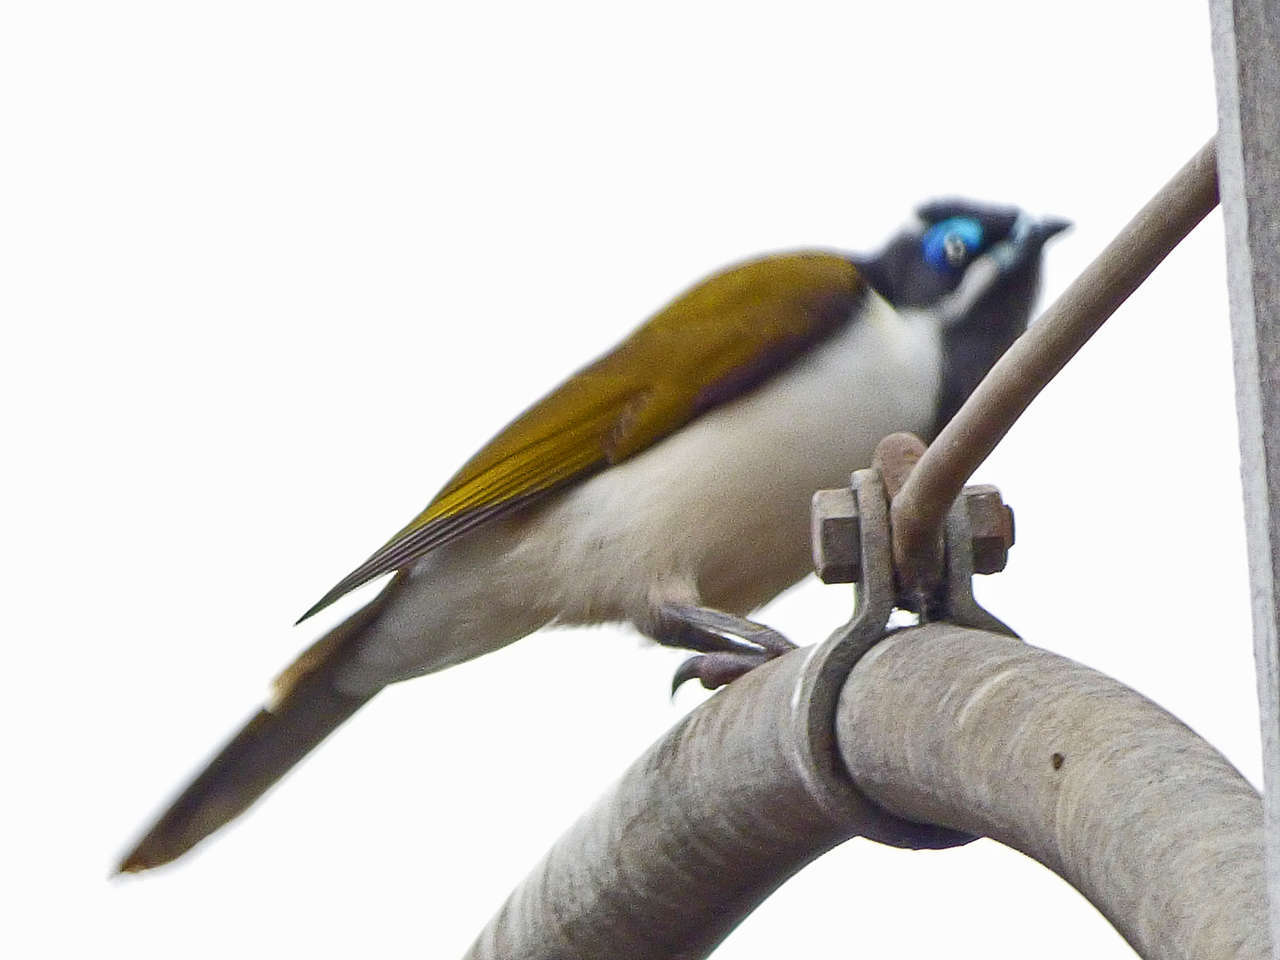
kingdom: Animalia
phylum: Chordata
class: Aves
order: Passeriformes
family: Meliphagidae
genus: Entomyzon
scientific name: Entomyzon cyanotis
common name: Blue-faced honeyeater
